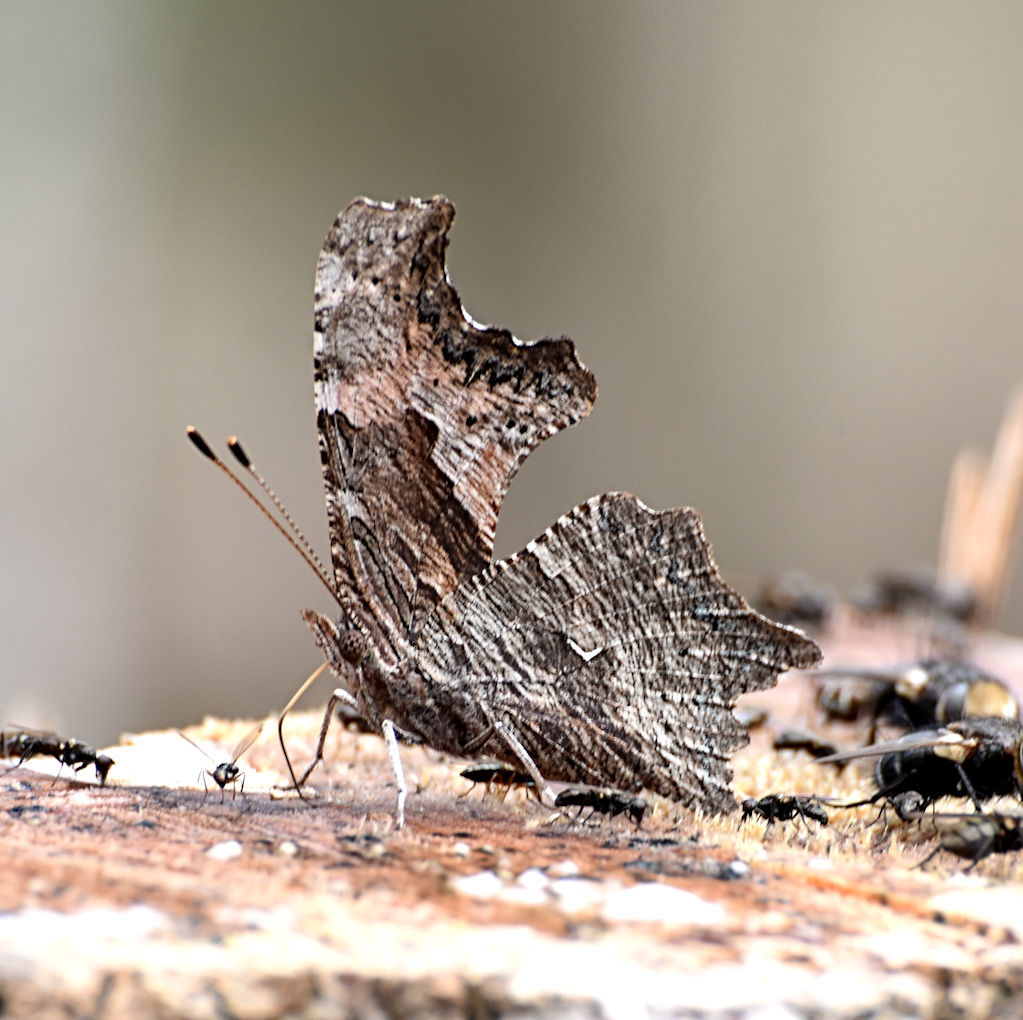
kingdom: Animalia
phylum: Arthropoda
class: Insecta
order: Lepidoptera
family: Nymphalidae
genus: Polygonia
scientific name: Polygonia progne
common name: Gray comma
